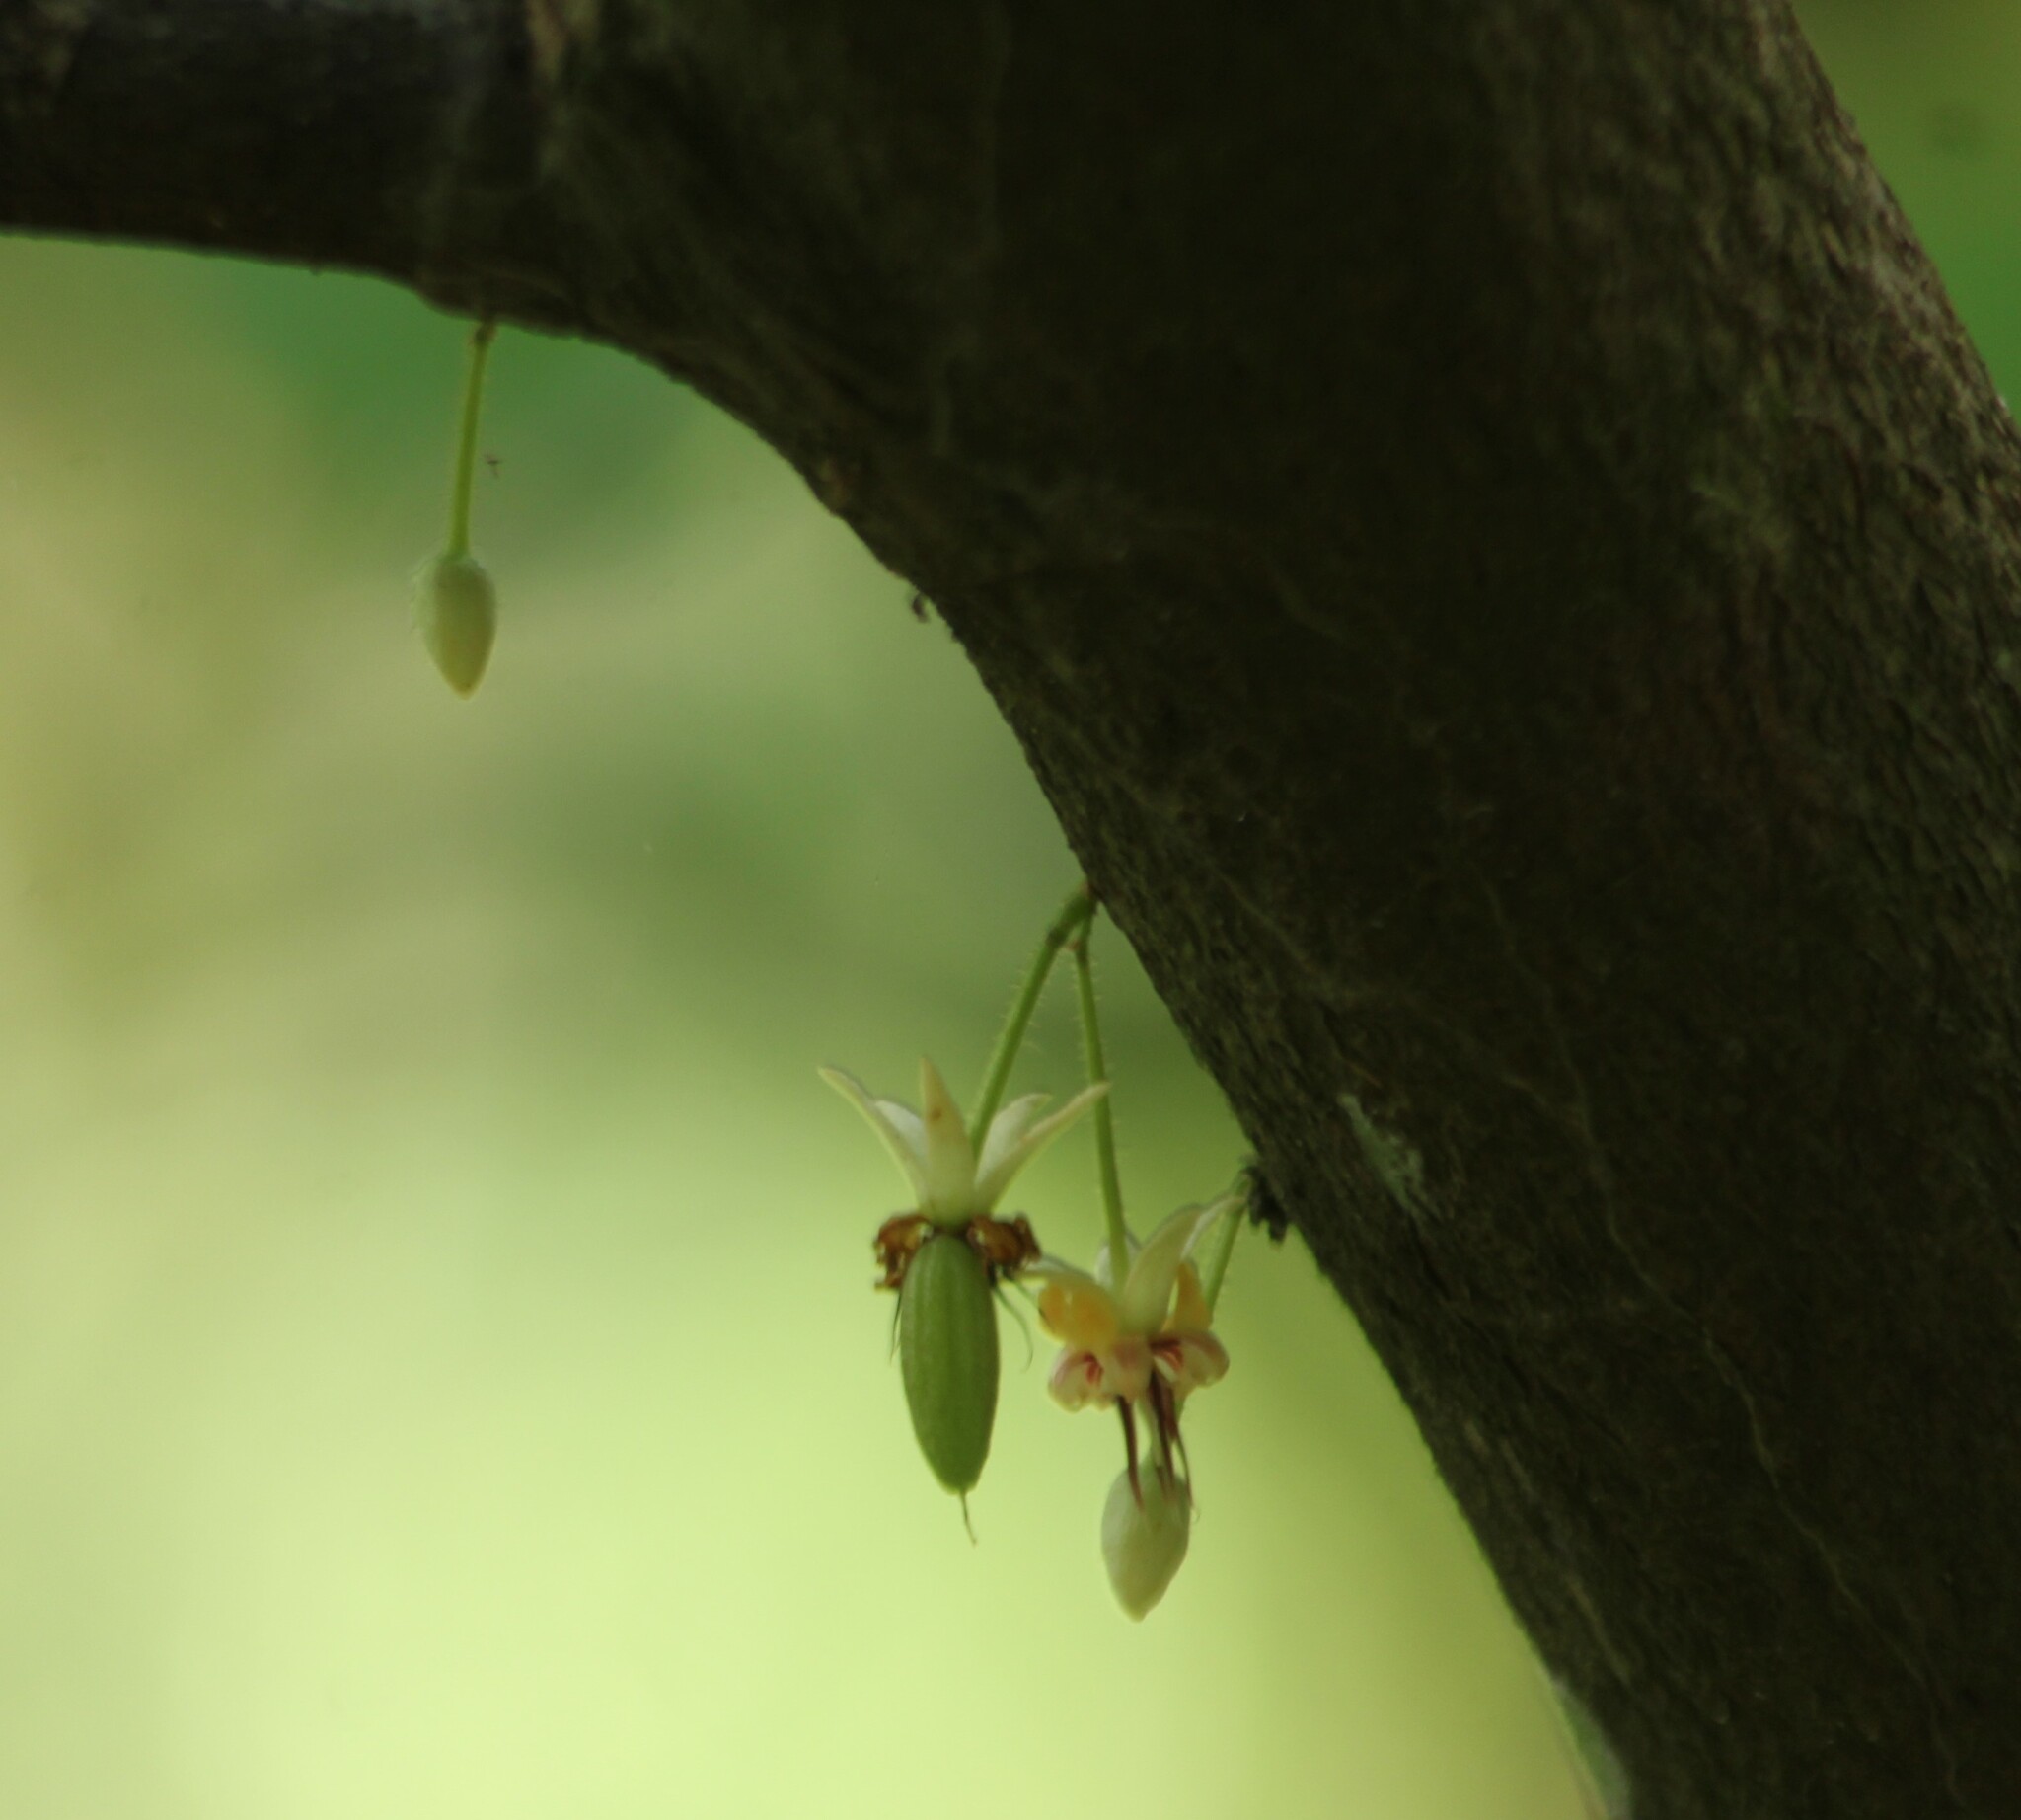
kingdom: Plantae
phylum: Tracheophyta
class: Magnoliopsida
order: Malvales
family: Malvaceae
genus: Theobroma
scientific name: Theobroma cacao
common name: Cocoa
